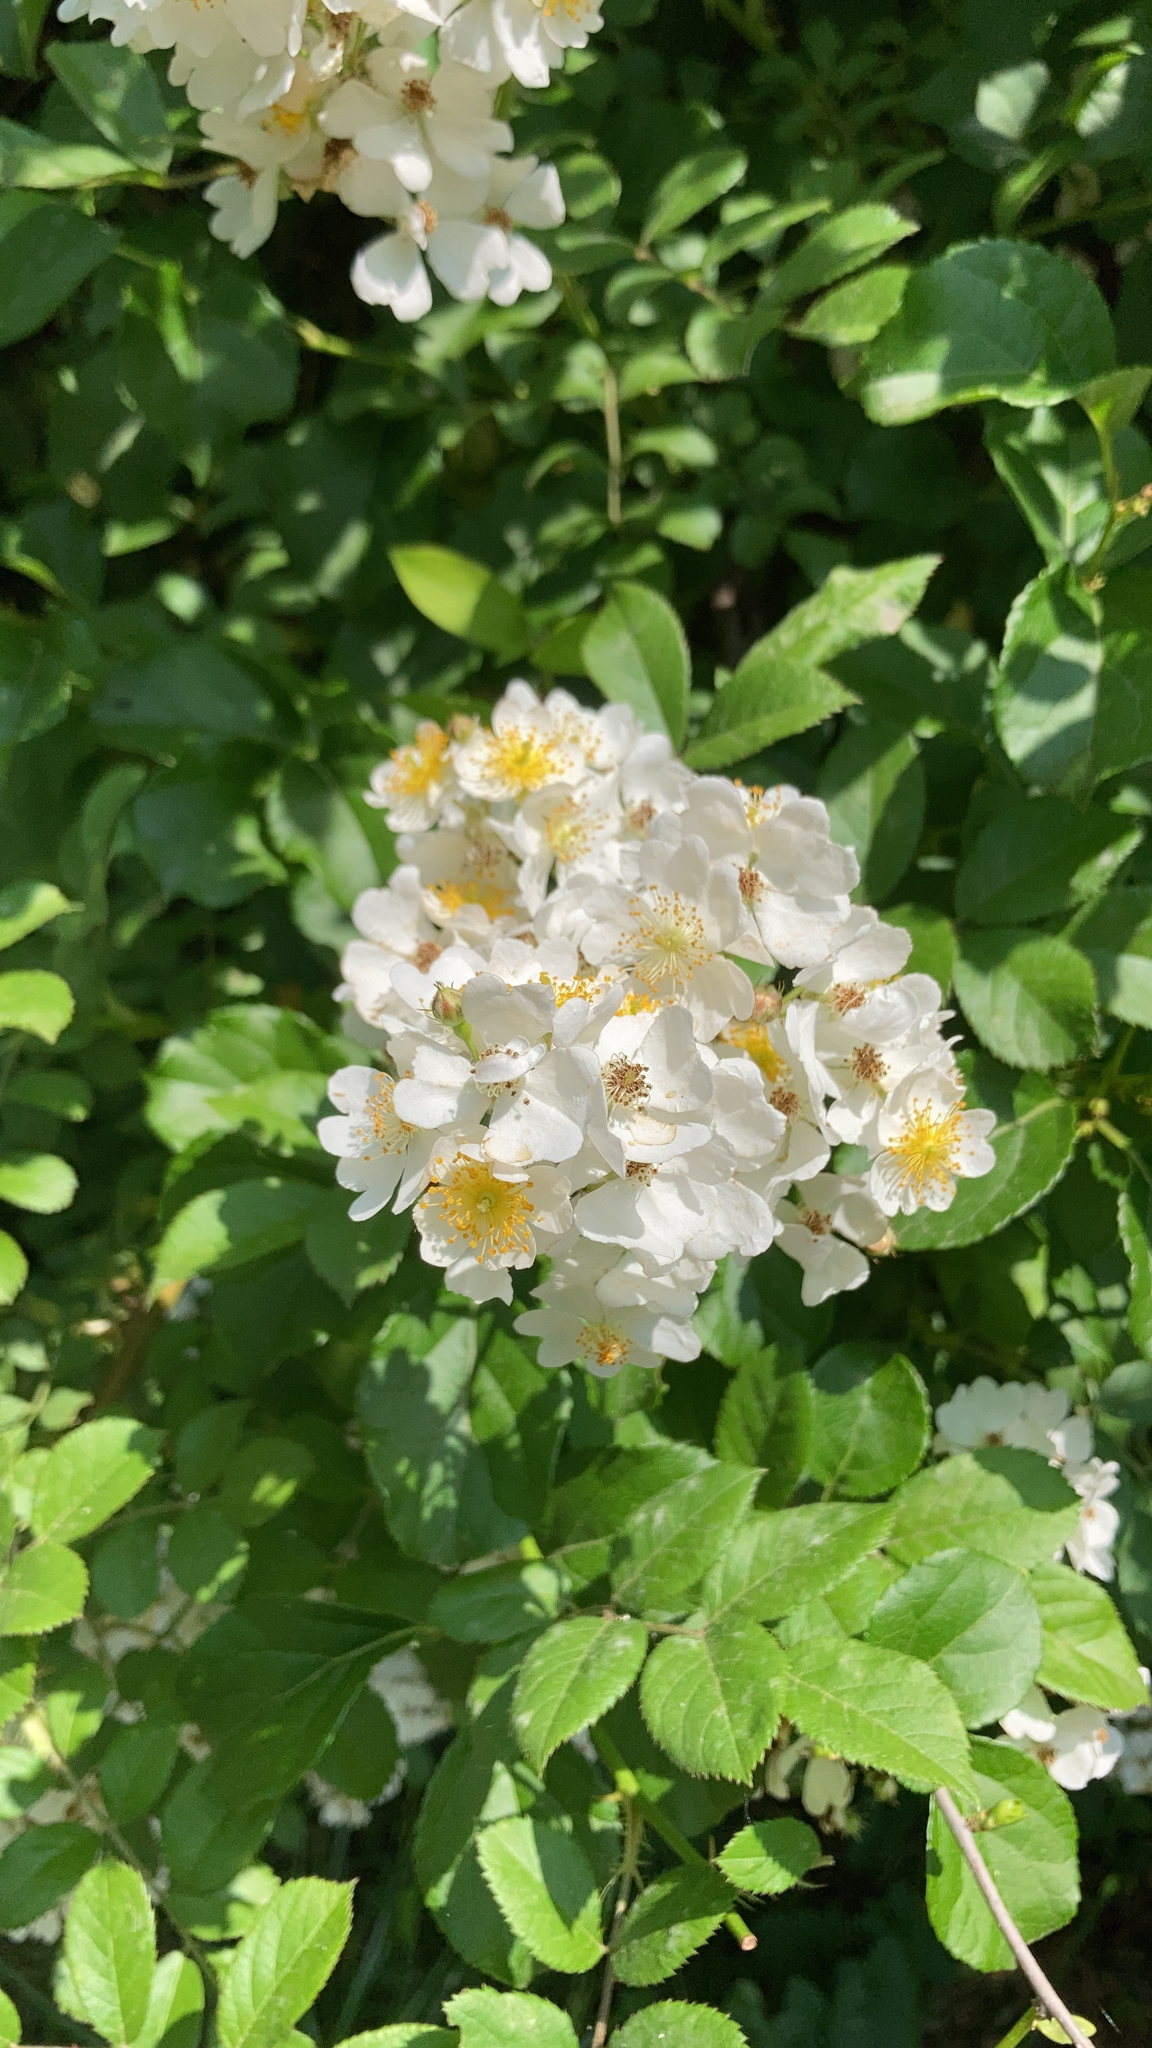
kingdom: Plantae
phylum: Tracheophyta
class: Magnoliopsida
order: Rosales
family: Rosaceae
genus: Rosa
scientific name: Rosa multiflora
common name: Multiflora rose
